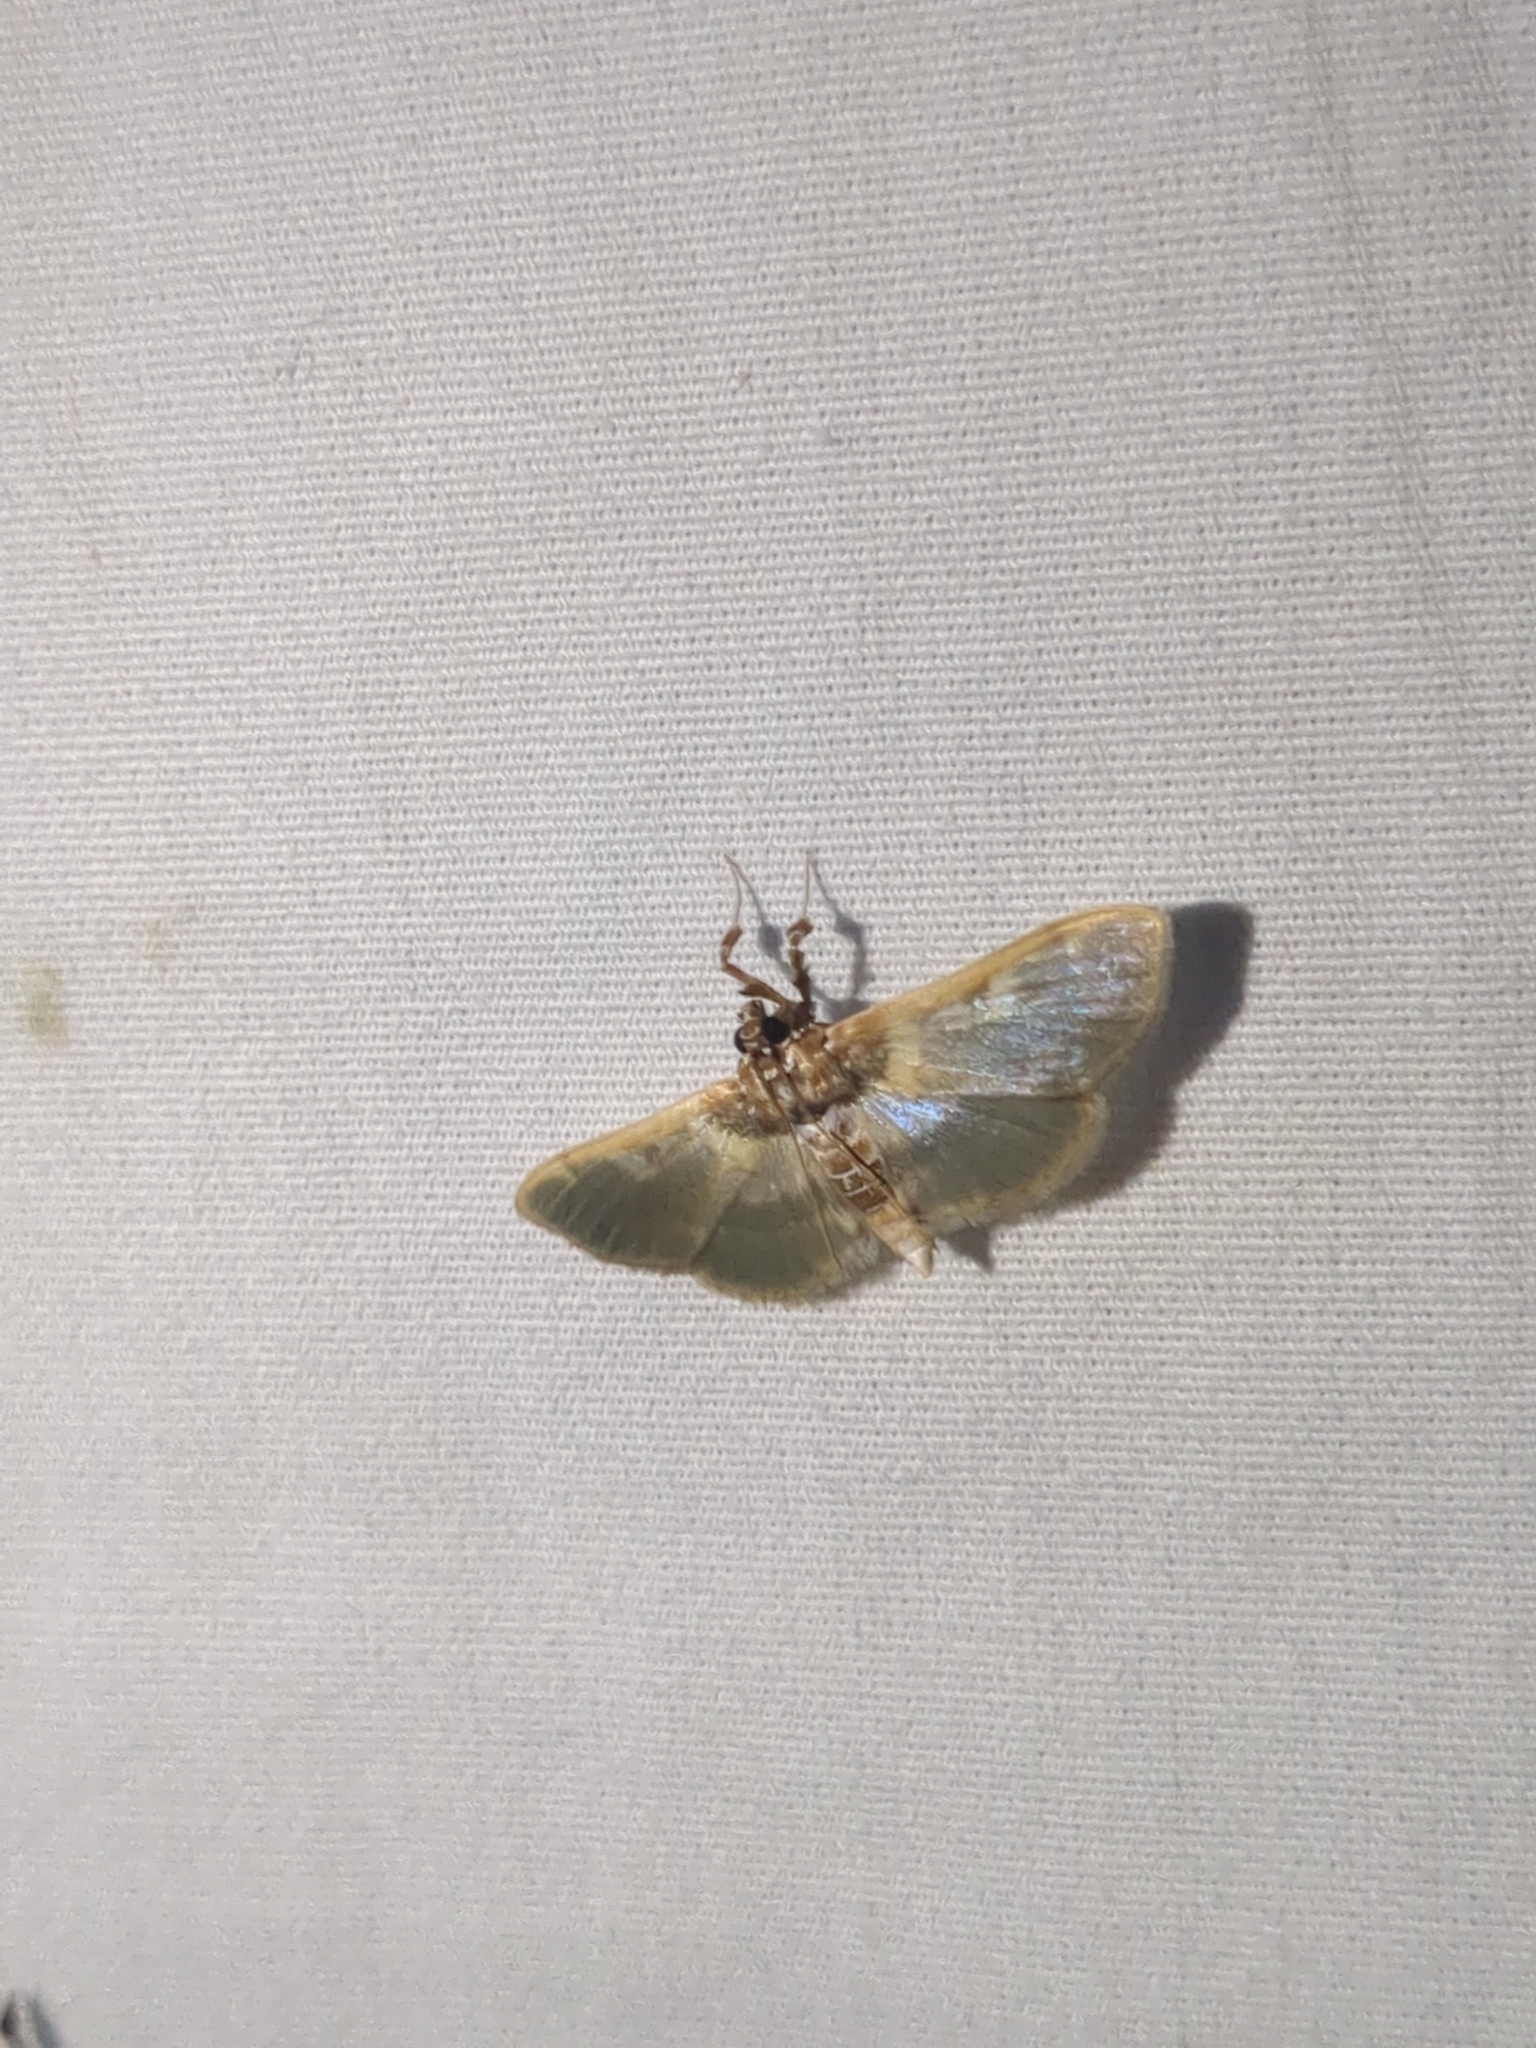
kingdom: Animalia
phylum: Arthropoda
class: Insecta
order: Lepidoptera
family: Crambidae
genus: Apilocrocis
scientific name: Apilocrocis brumalis
